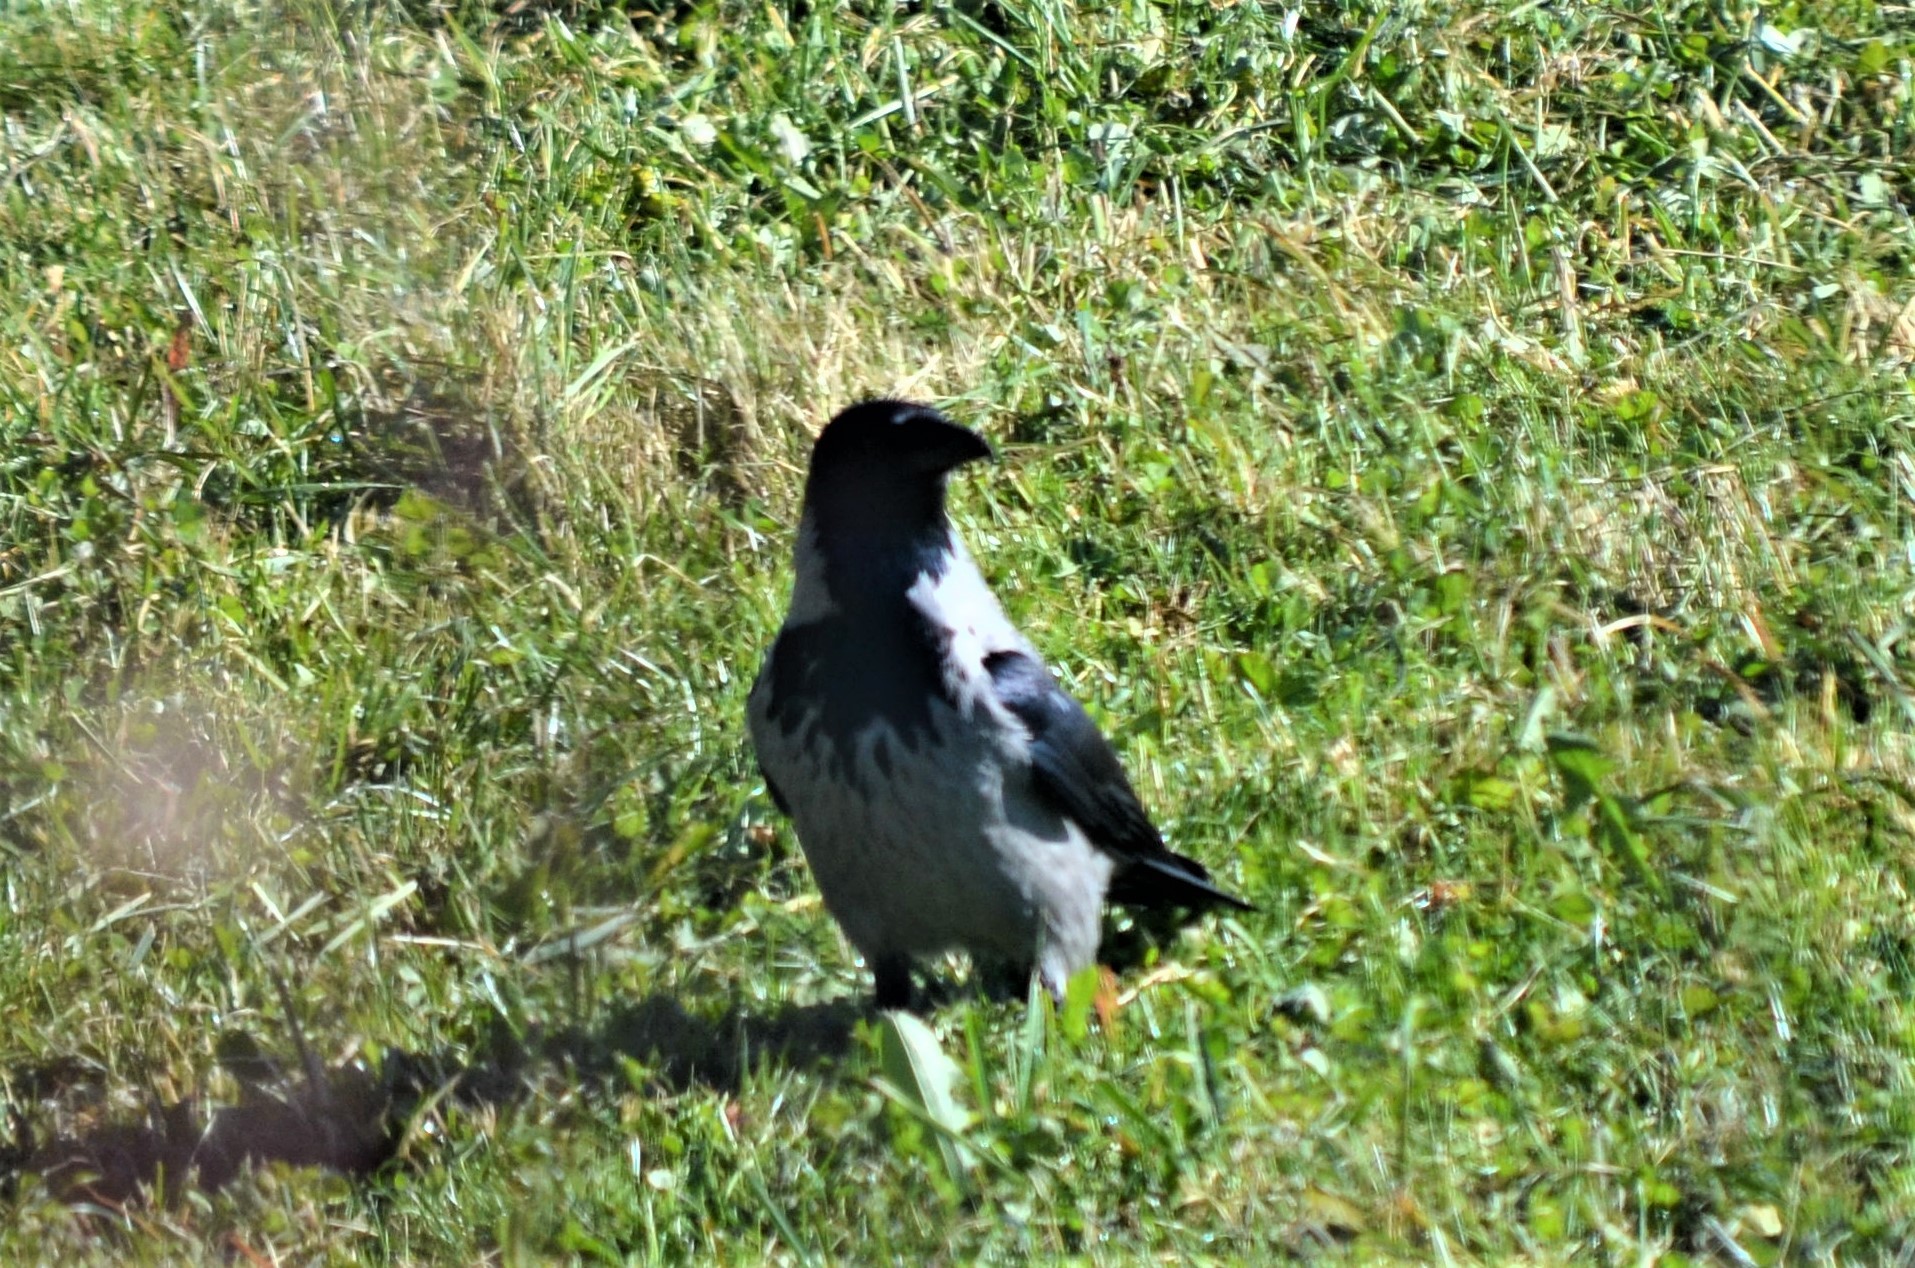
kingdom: Animalia
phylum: Chordata
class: Aves
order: Passeriformes
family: Corvidae
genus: Corvus
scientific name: Corvus cornix
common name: Hooded crow
